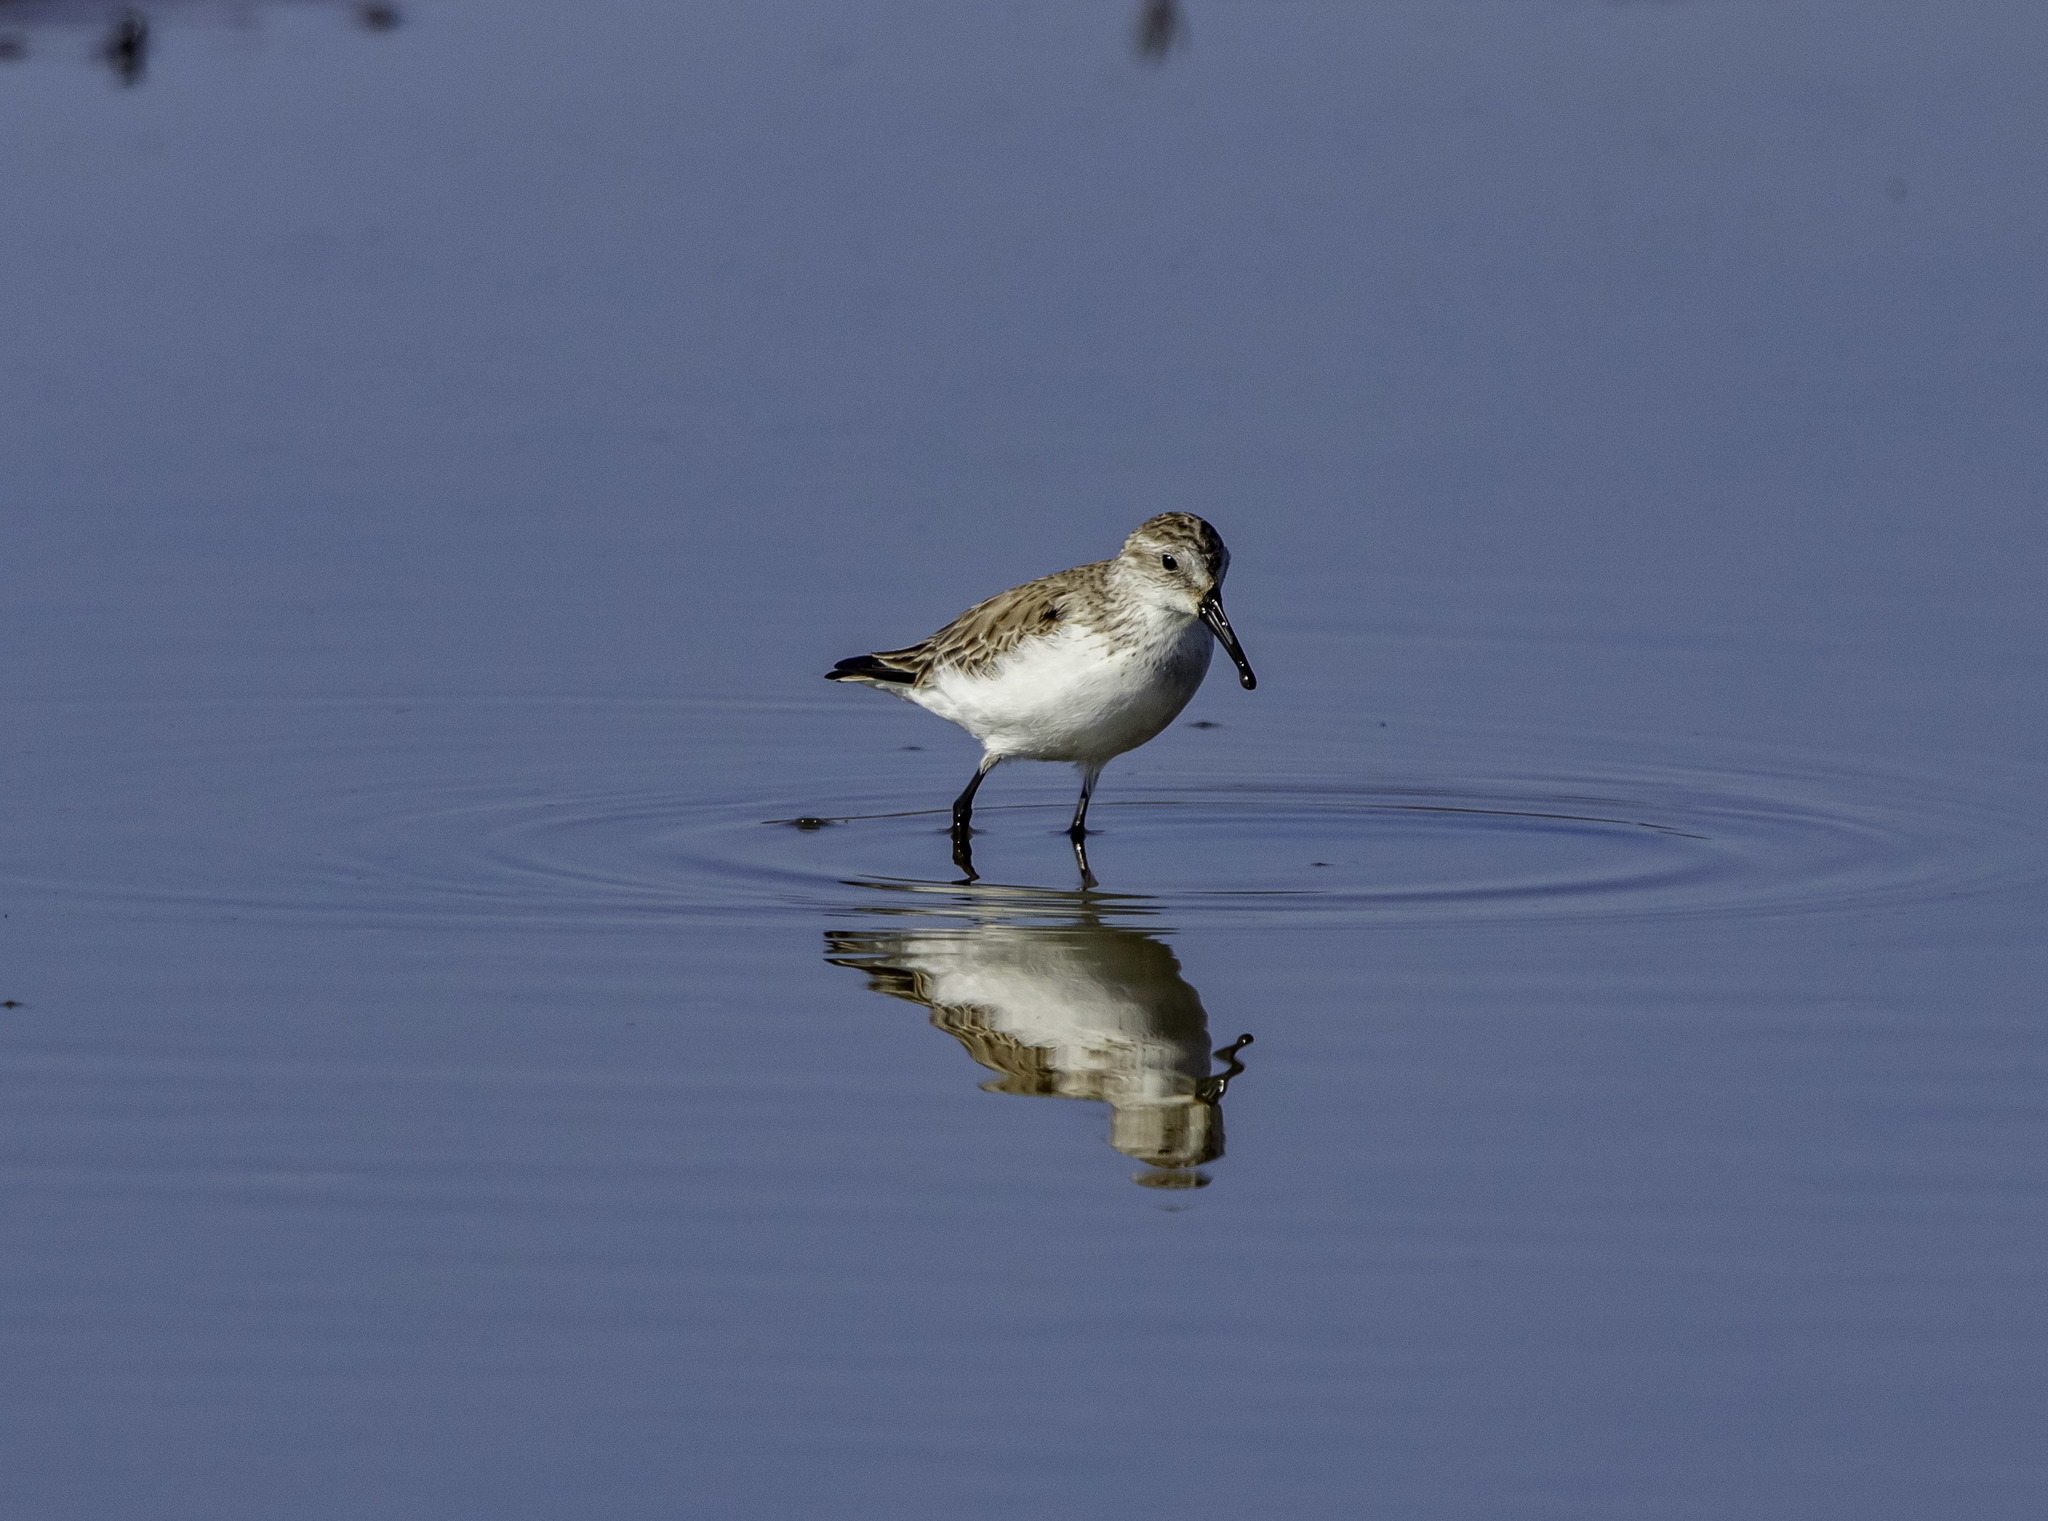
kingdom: Animalia
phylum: Chordata
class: Aves
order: Charadriiformes
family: Scolopacidae
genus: Calidris
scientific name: Calidris mauri
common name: Western sandpiper
